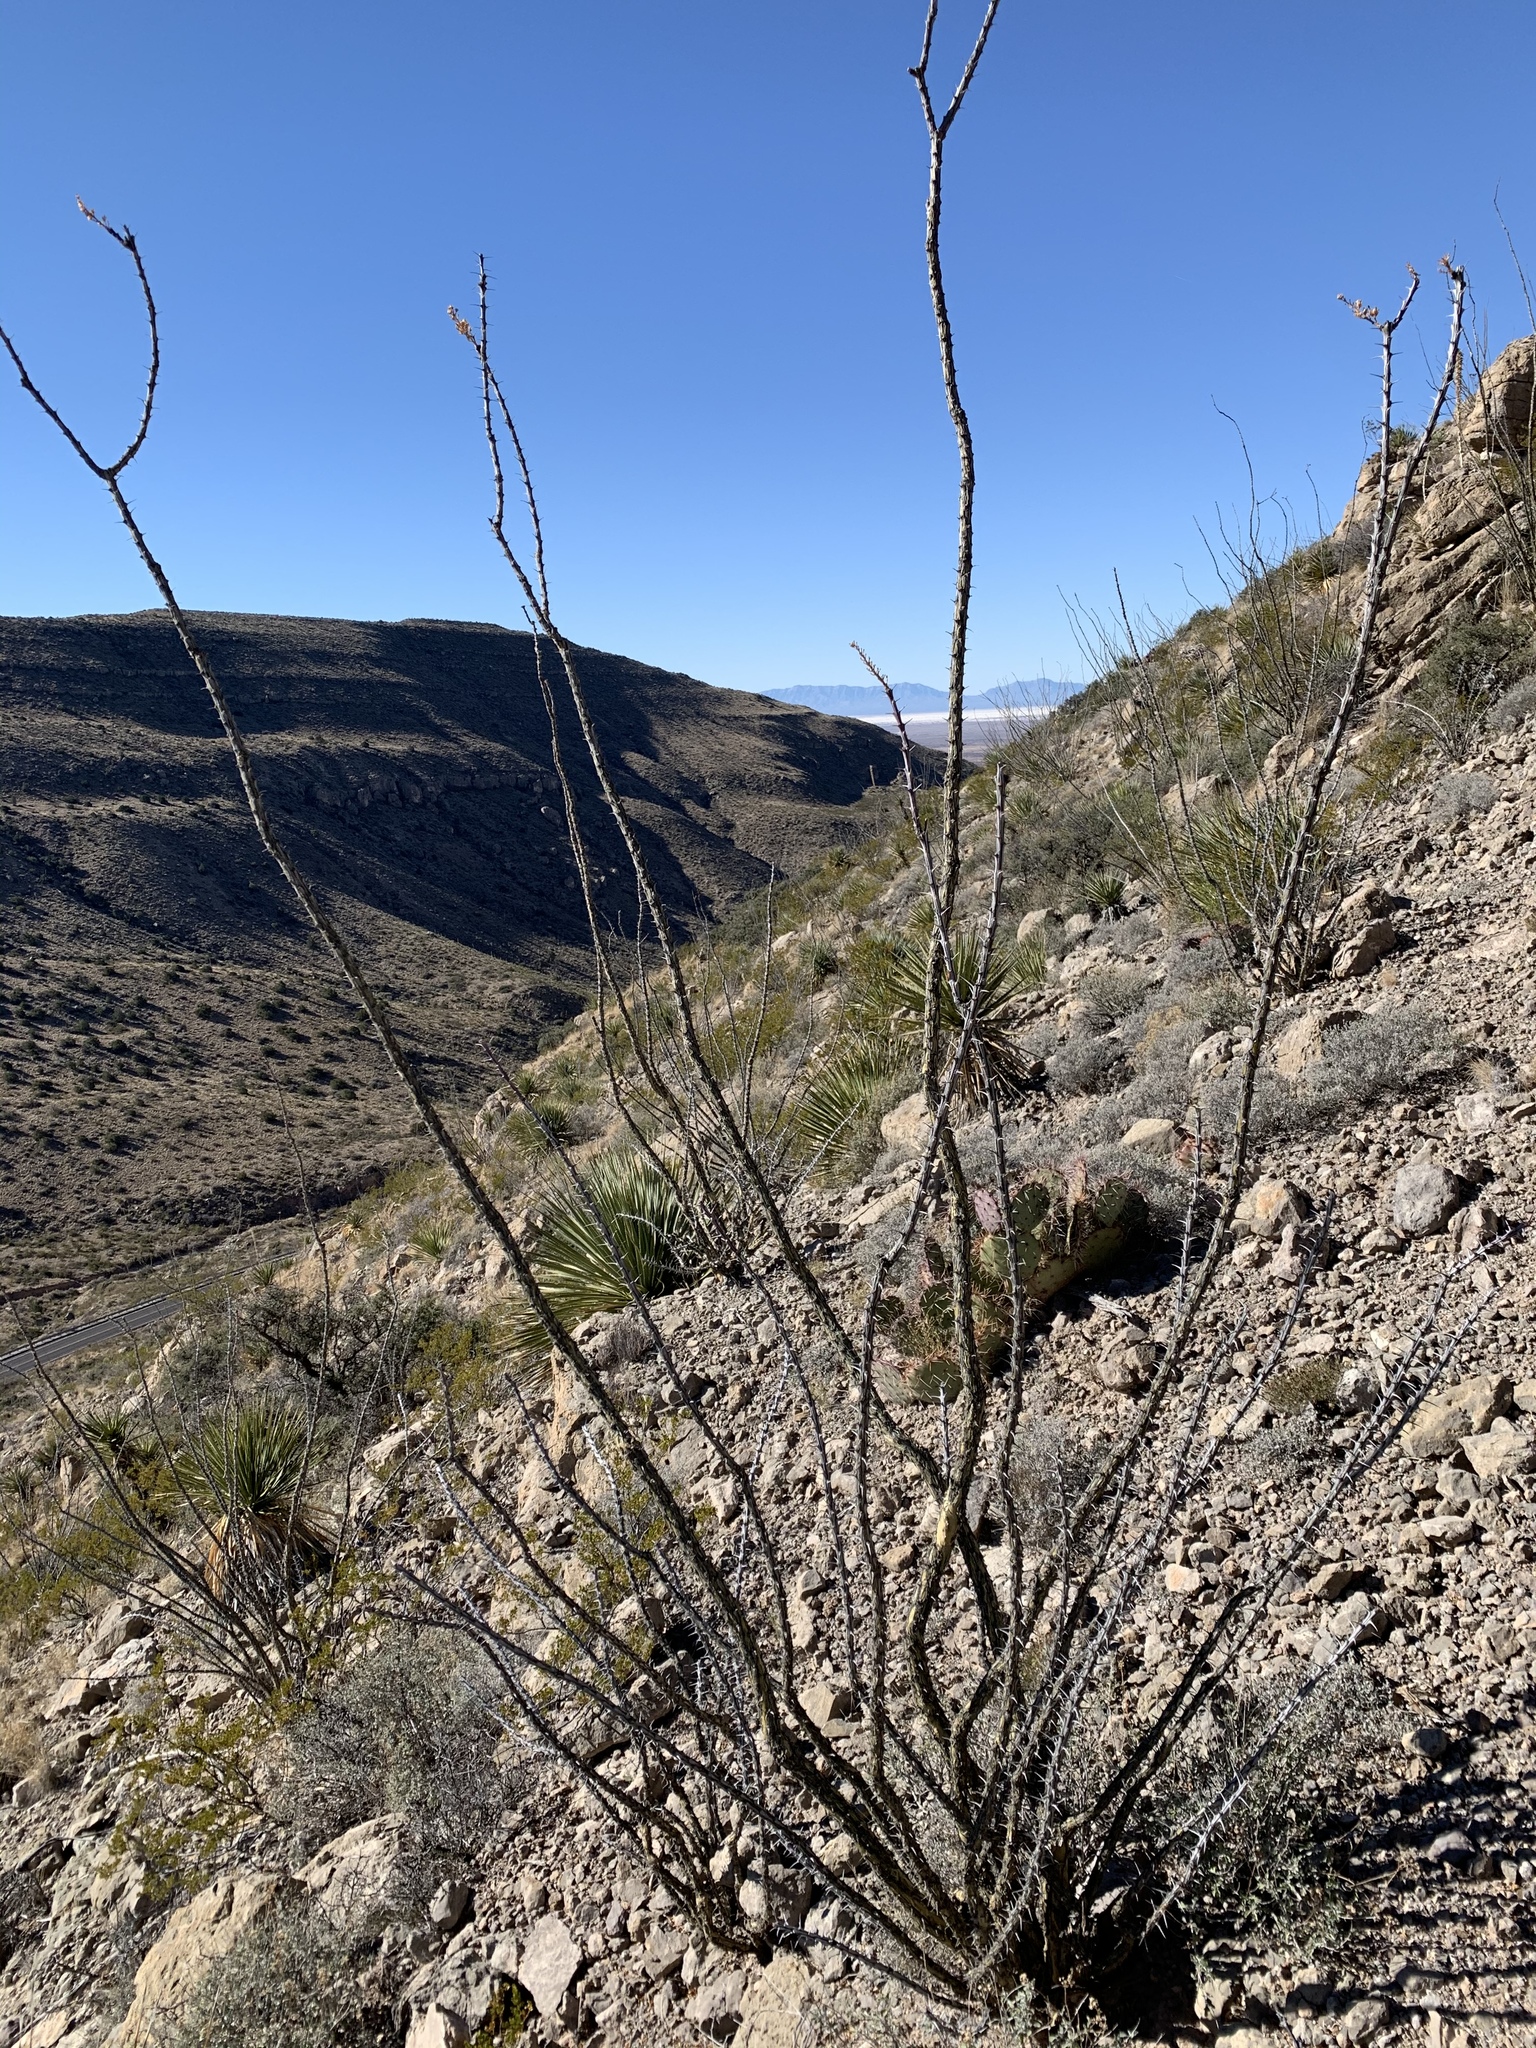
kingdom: Plantae
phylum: Tracheophyta
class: Magnoliopsida
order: Ericales
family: Fouquieriaceae
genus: Fouquieria
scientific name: Fouquieria splendens
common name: Vine-cactus
